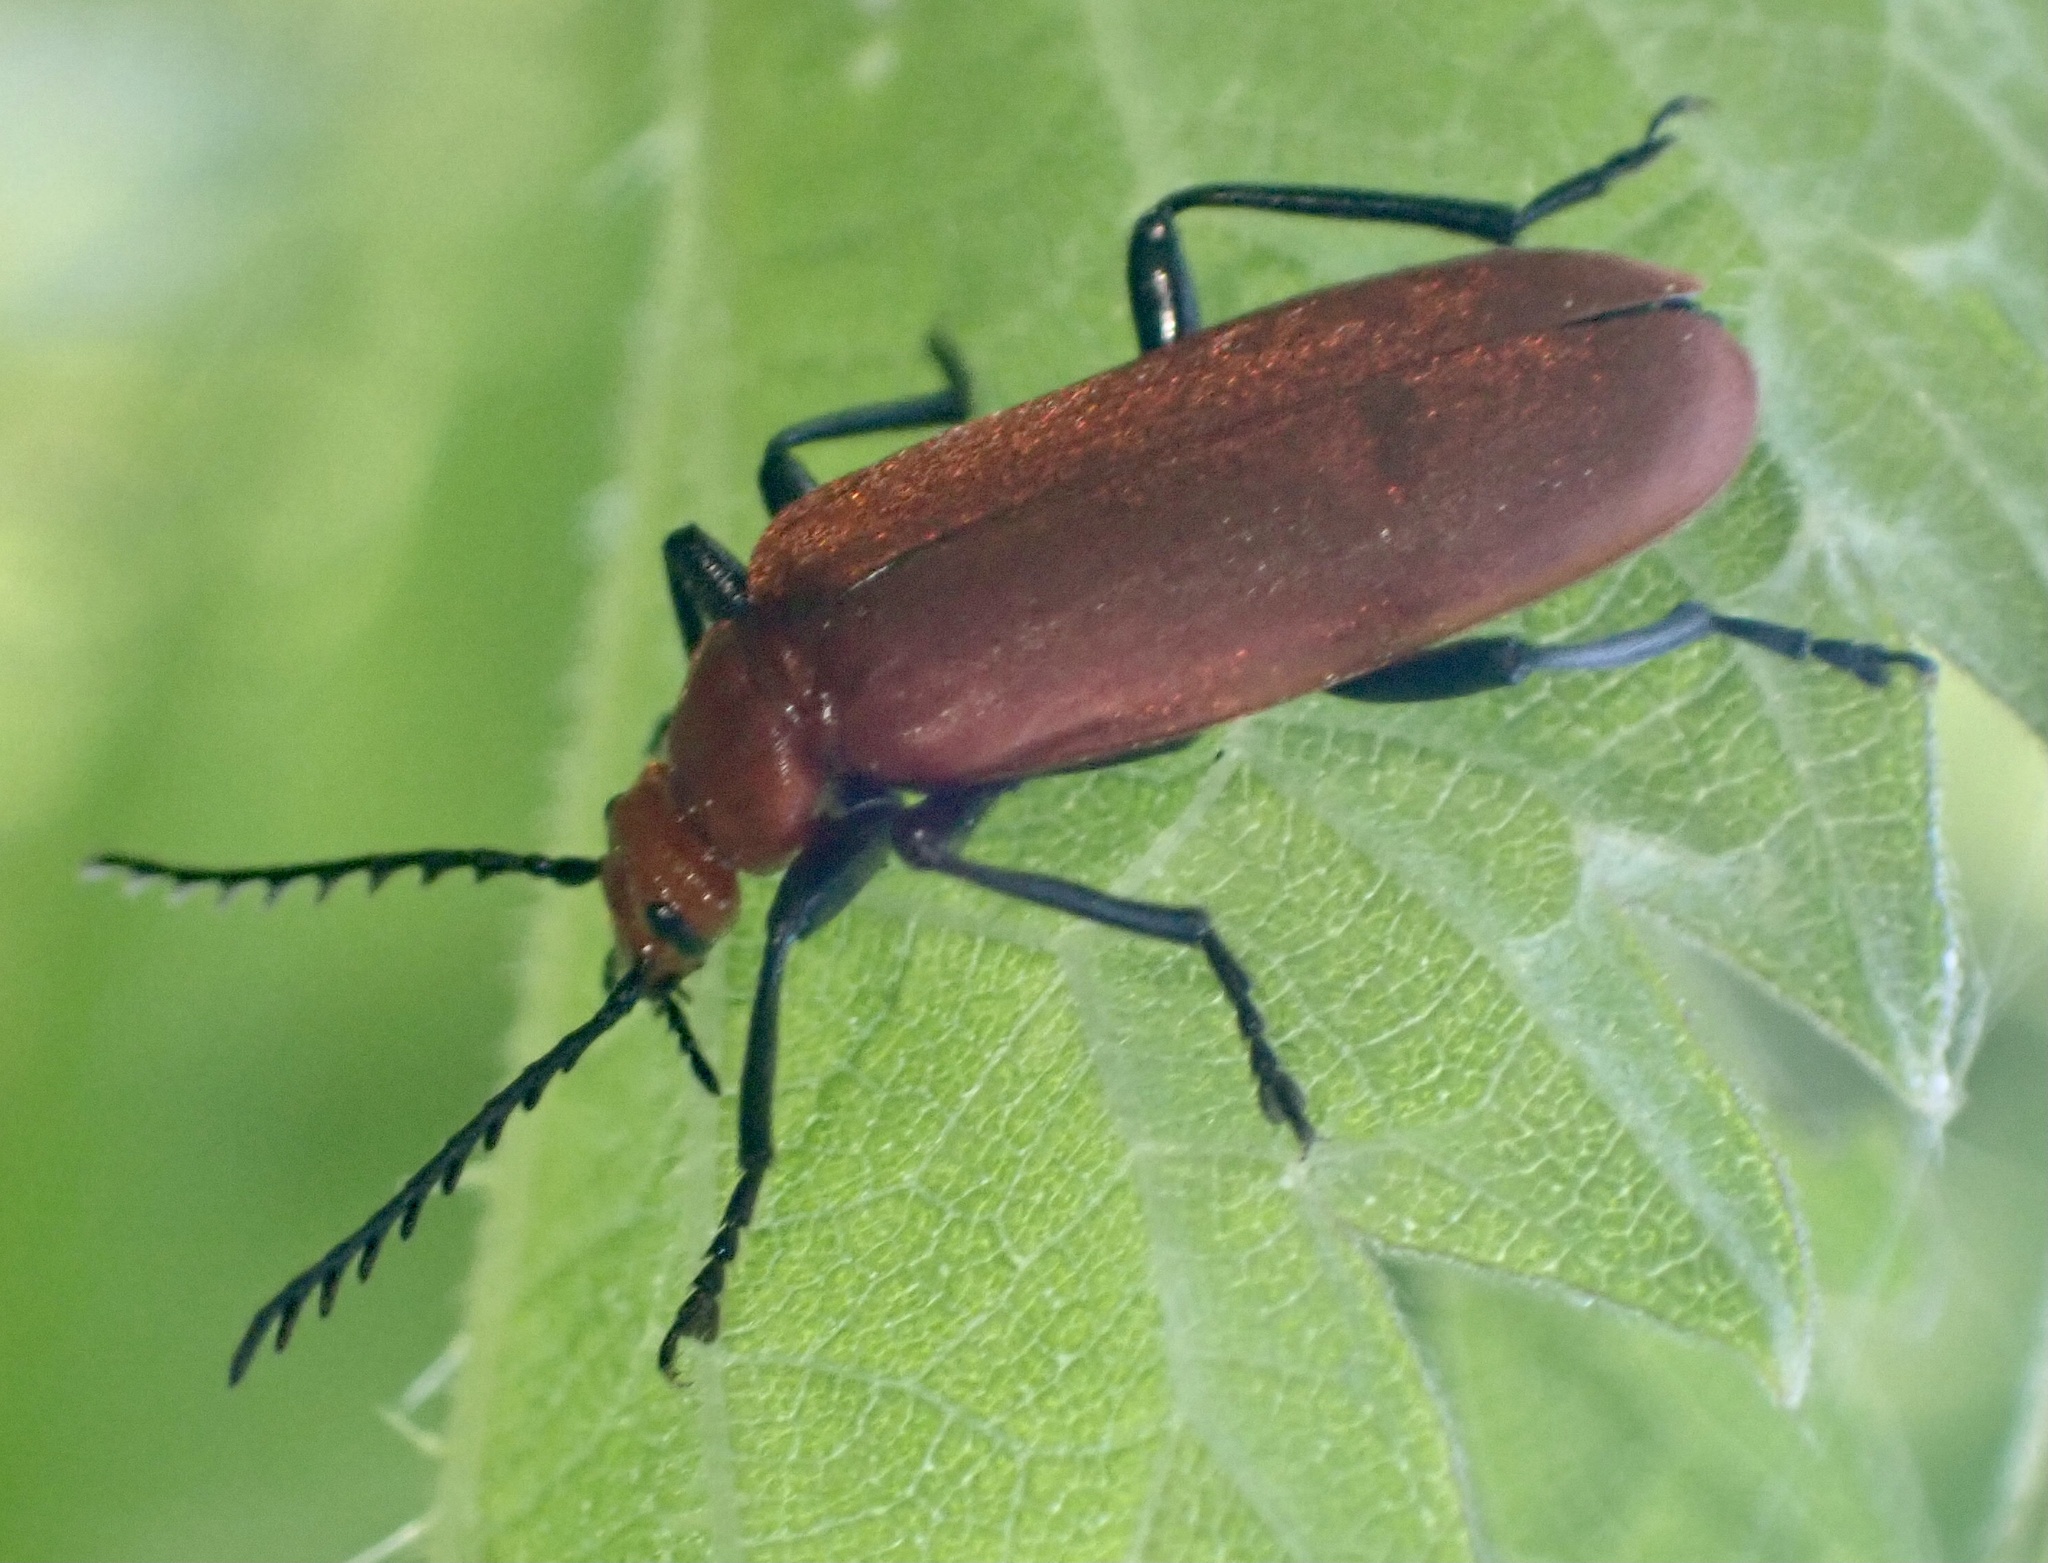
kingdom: Animalia
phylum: Arthropoda
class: Insecta
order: Coleoptera
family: Pyrochroidae
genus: Pyrochroa
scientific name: Pyrochroa serraticornis
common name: Red-headed cardinal beetle
